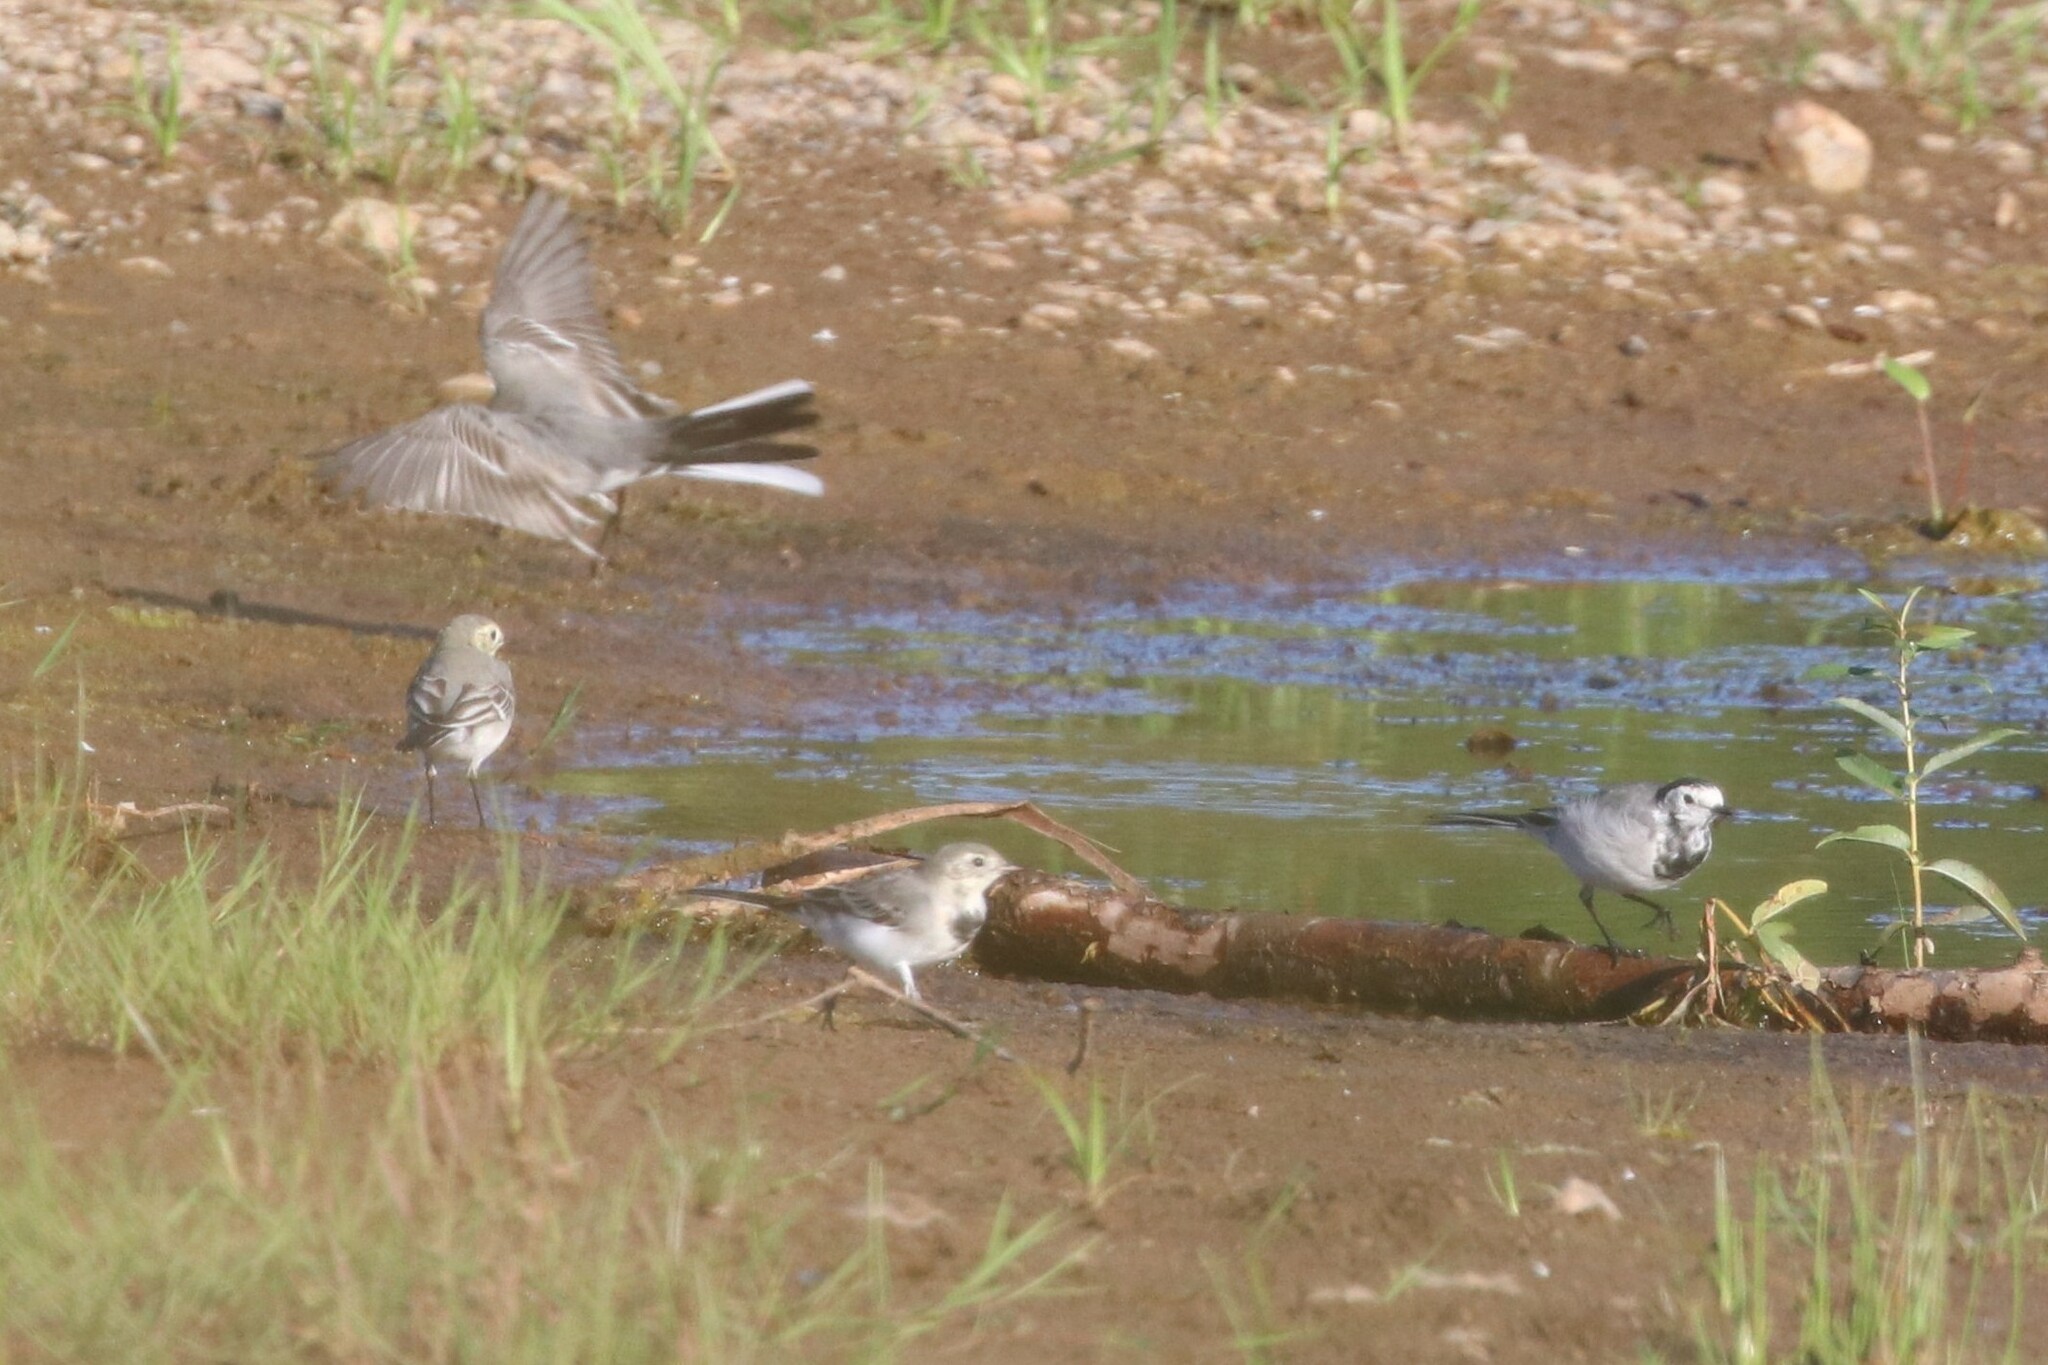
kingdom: Animalia
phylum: Chordata
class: Aves
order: Passeriformes
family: Motacillidae
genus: Motacilla
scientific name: Motacilla alba
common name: White wagtail
